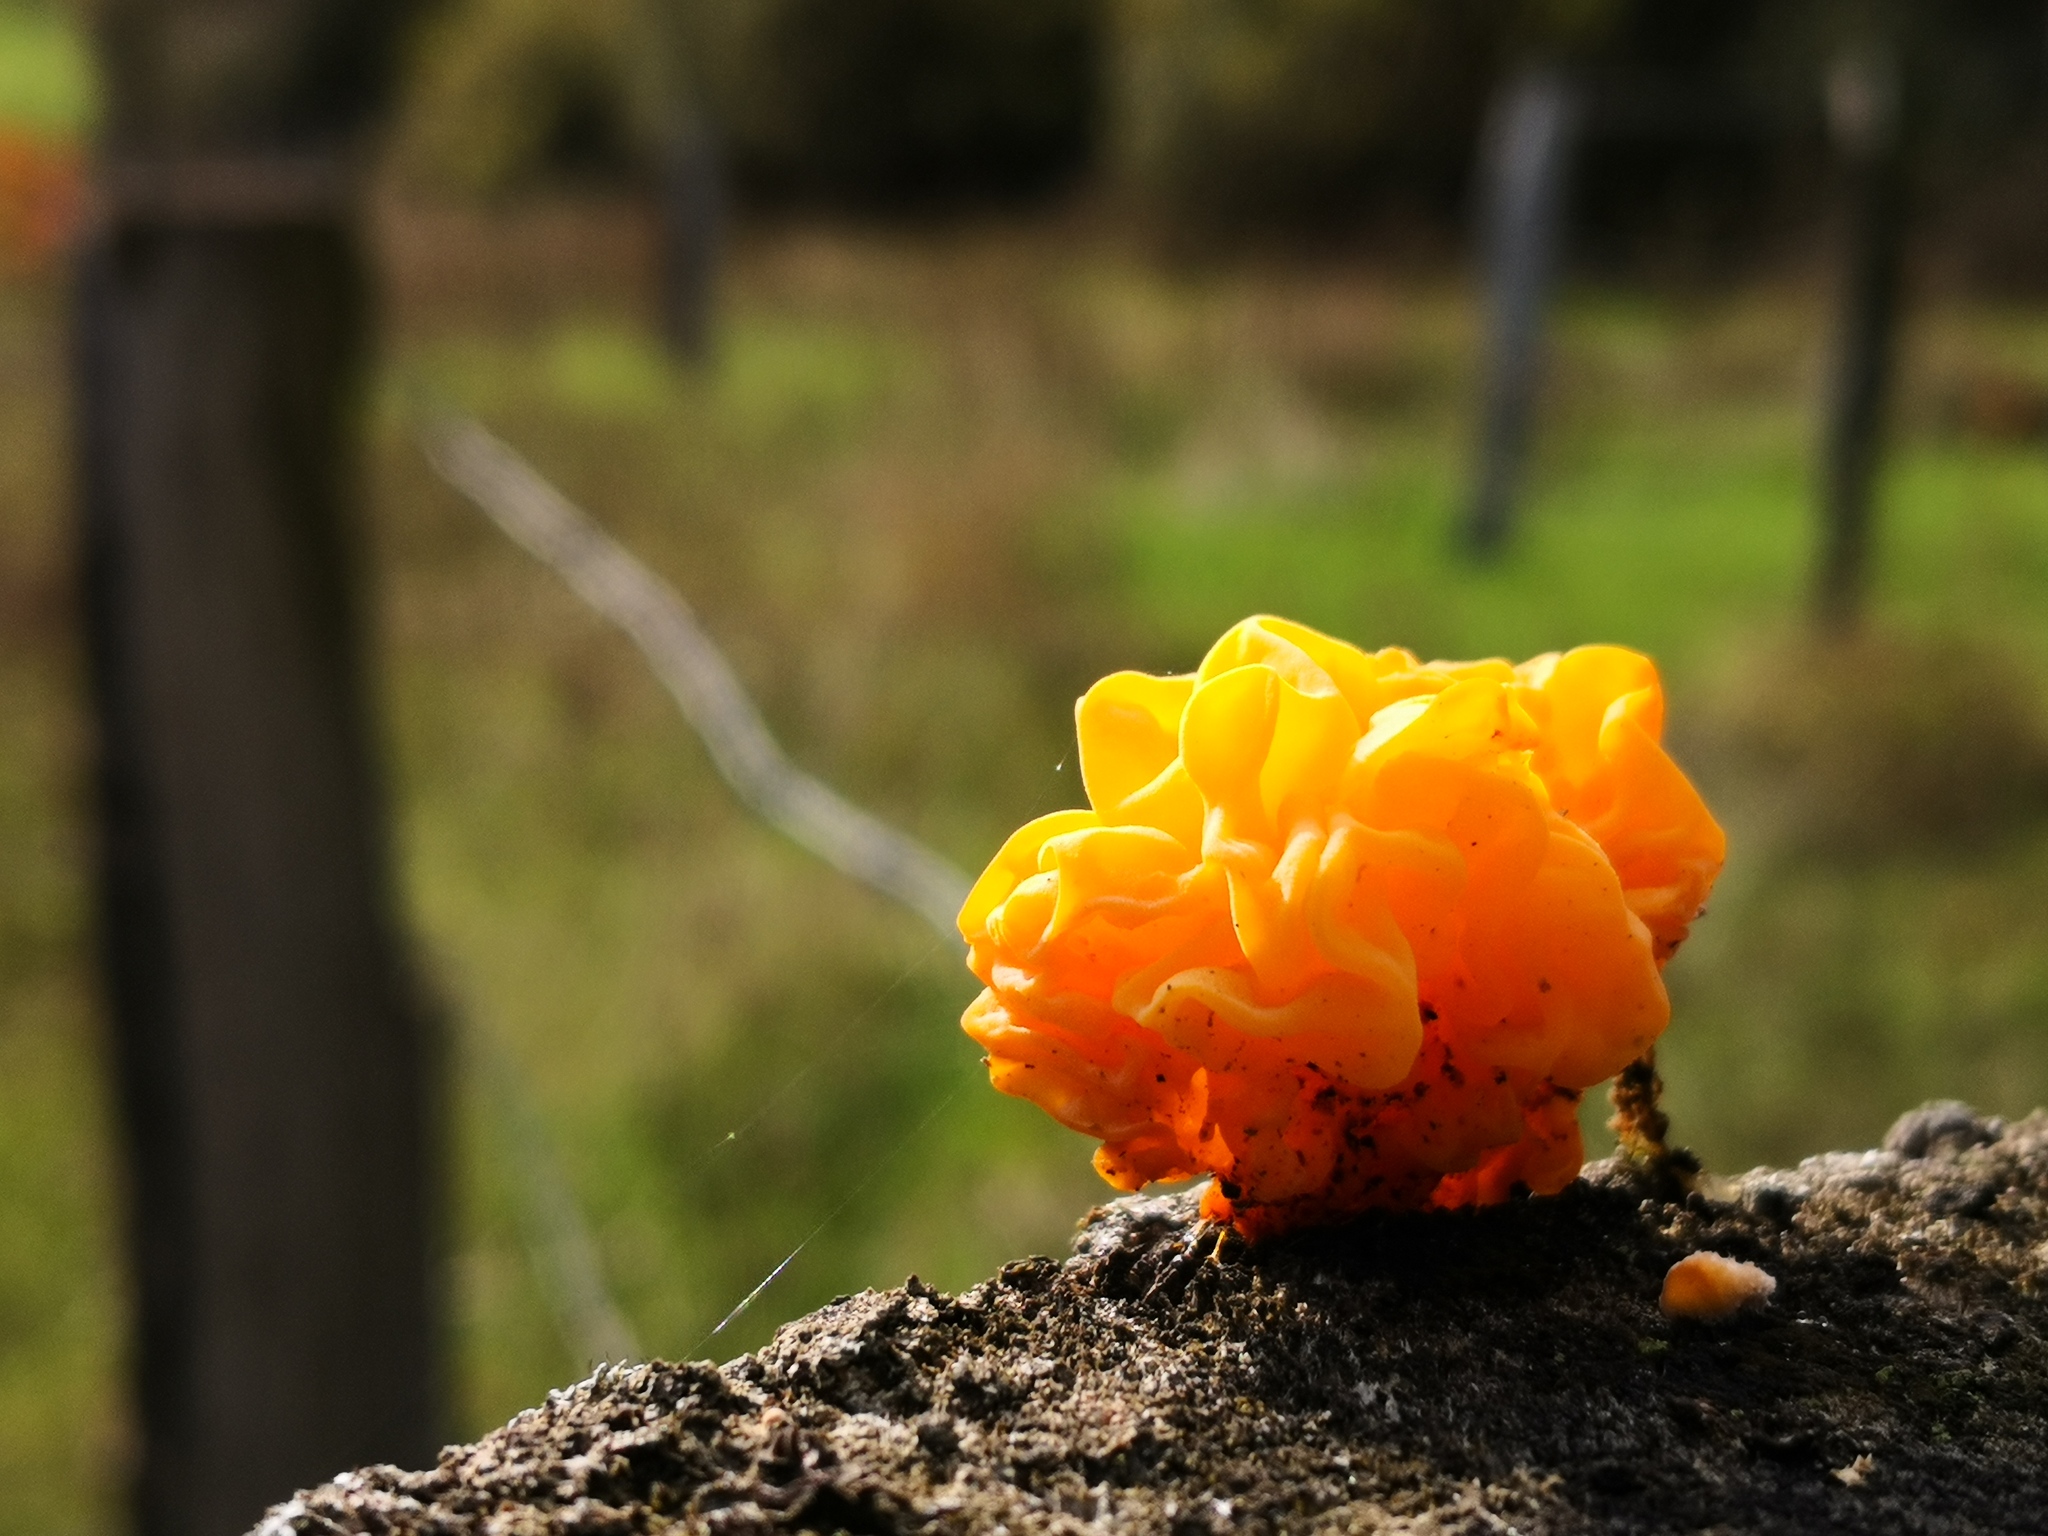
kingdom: Fungi
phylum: Basidiomycota
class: Tremellomycetes
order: Tremellales
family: Naemateliaceae
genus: Naematelia
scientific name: Naematelia aurantia
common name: Golden ear
